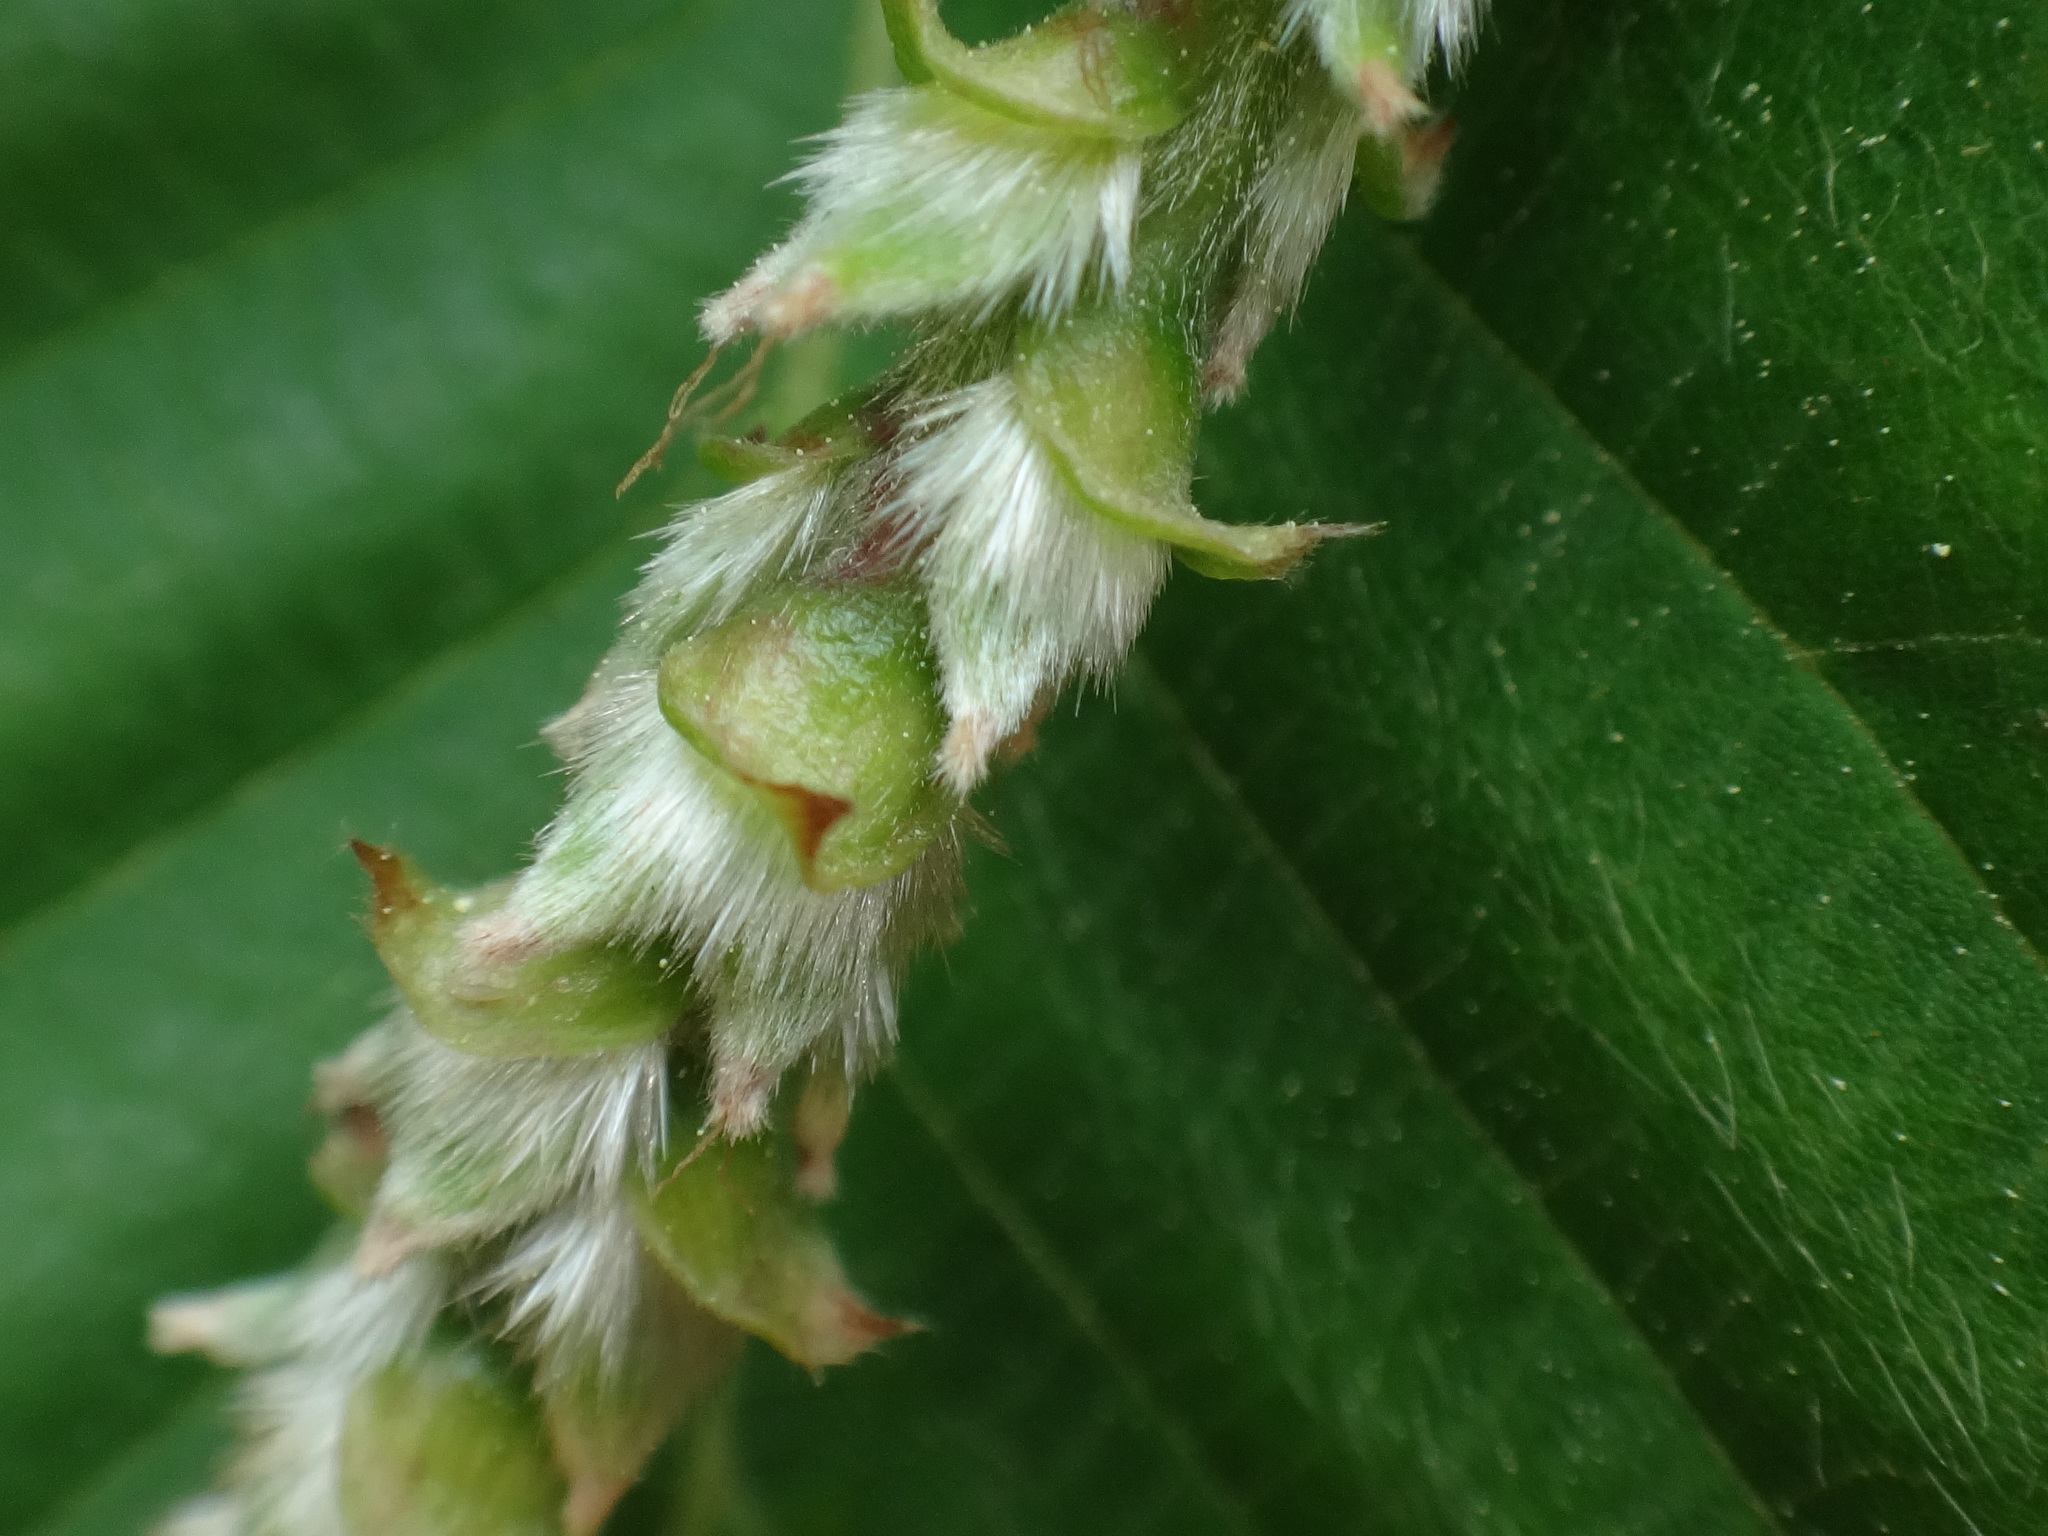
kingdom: Plantae
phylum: Tracheophyta
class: Magnoliopsida
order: Fagales
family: Betulaceae
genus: Ostrya
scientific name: Ostrya carpinifolia
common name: European hop-hornbeam
